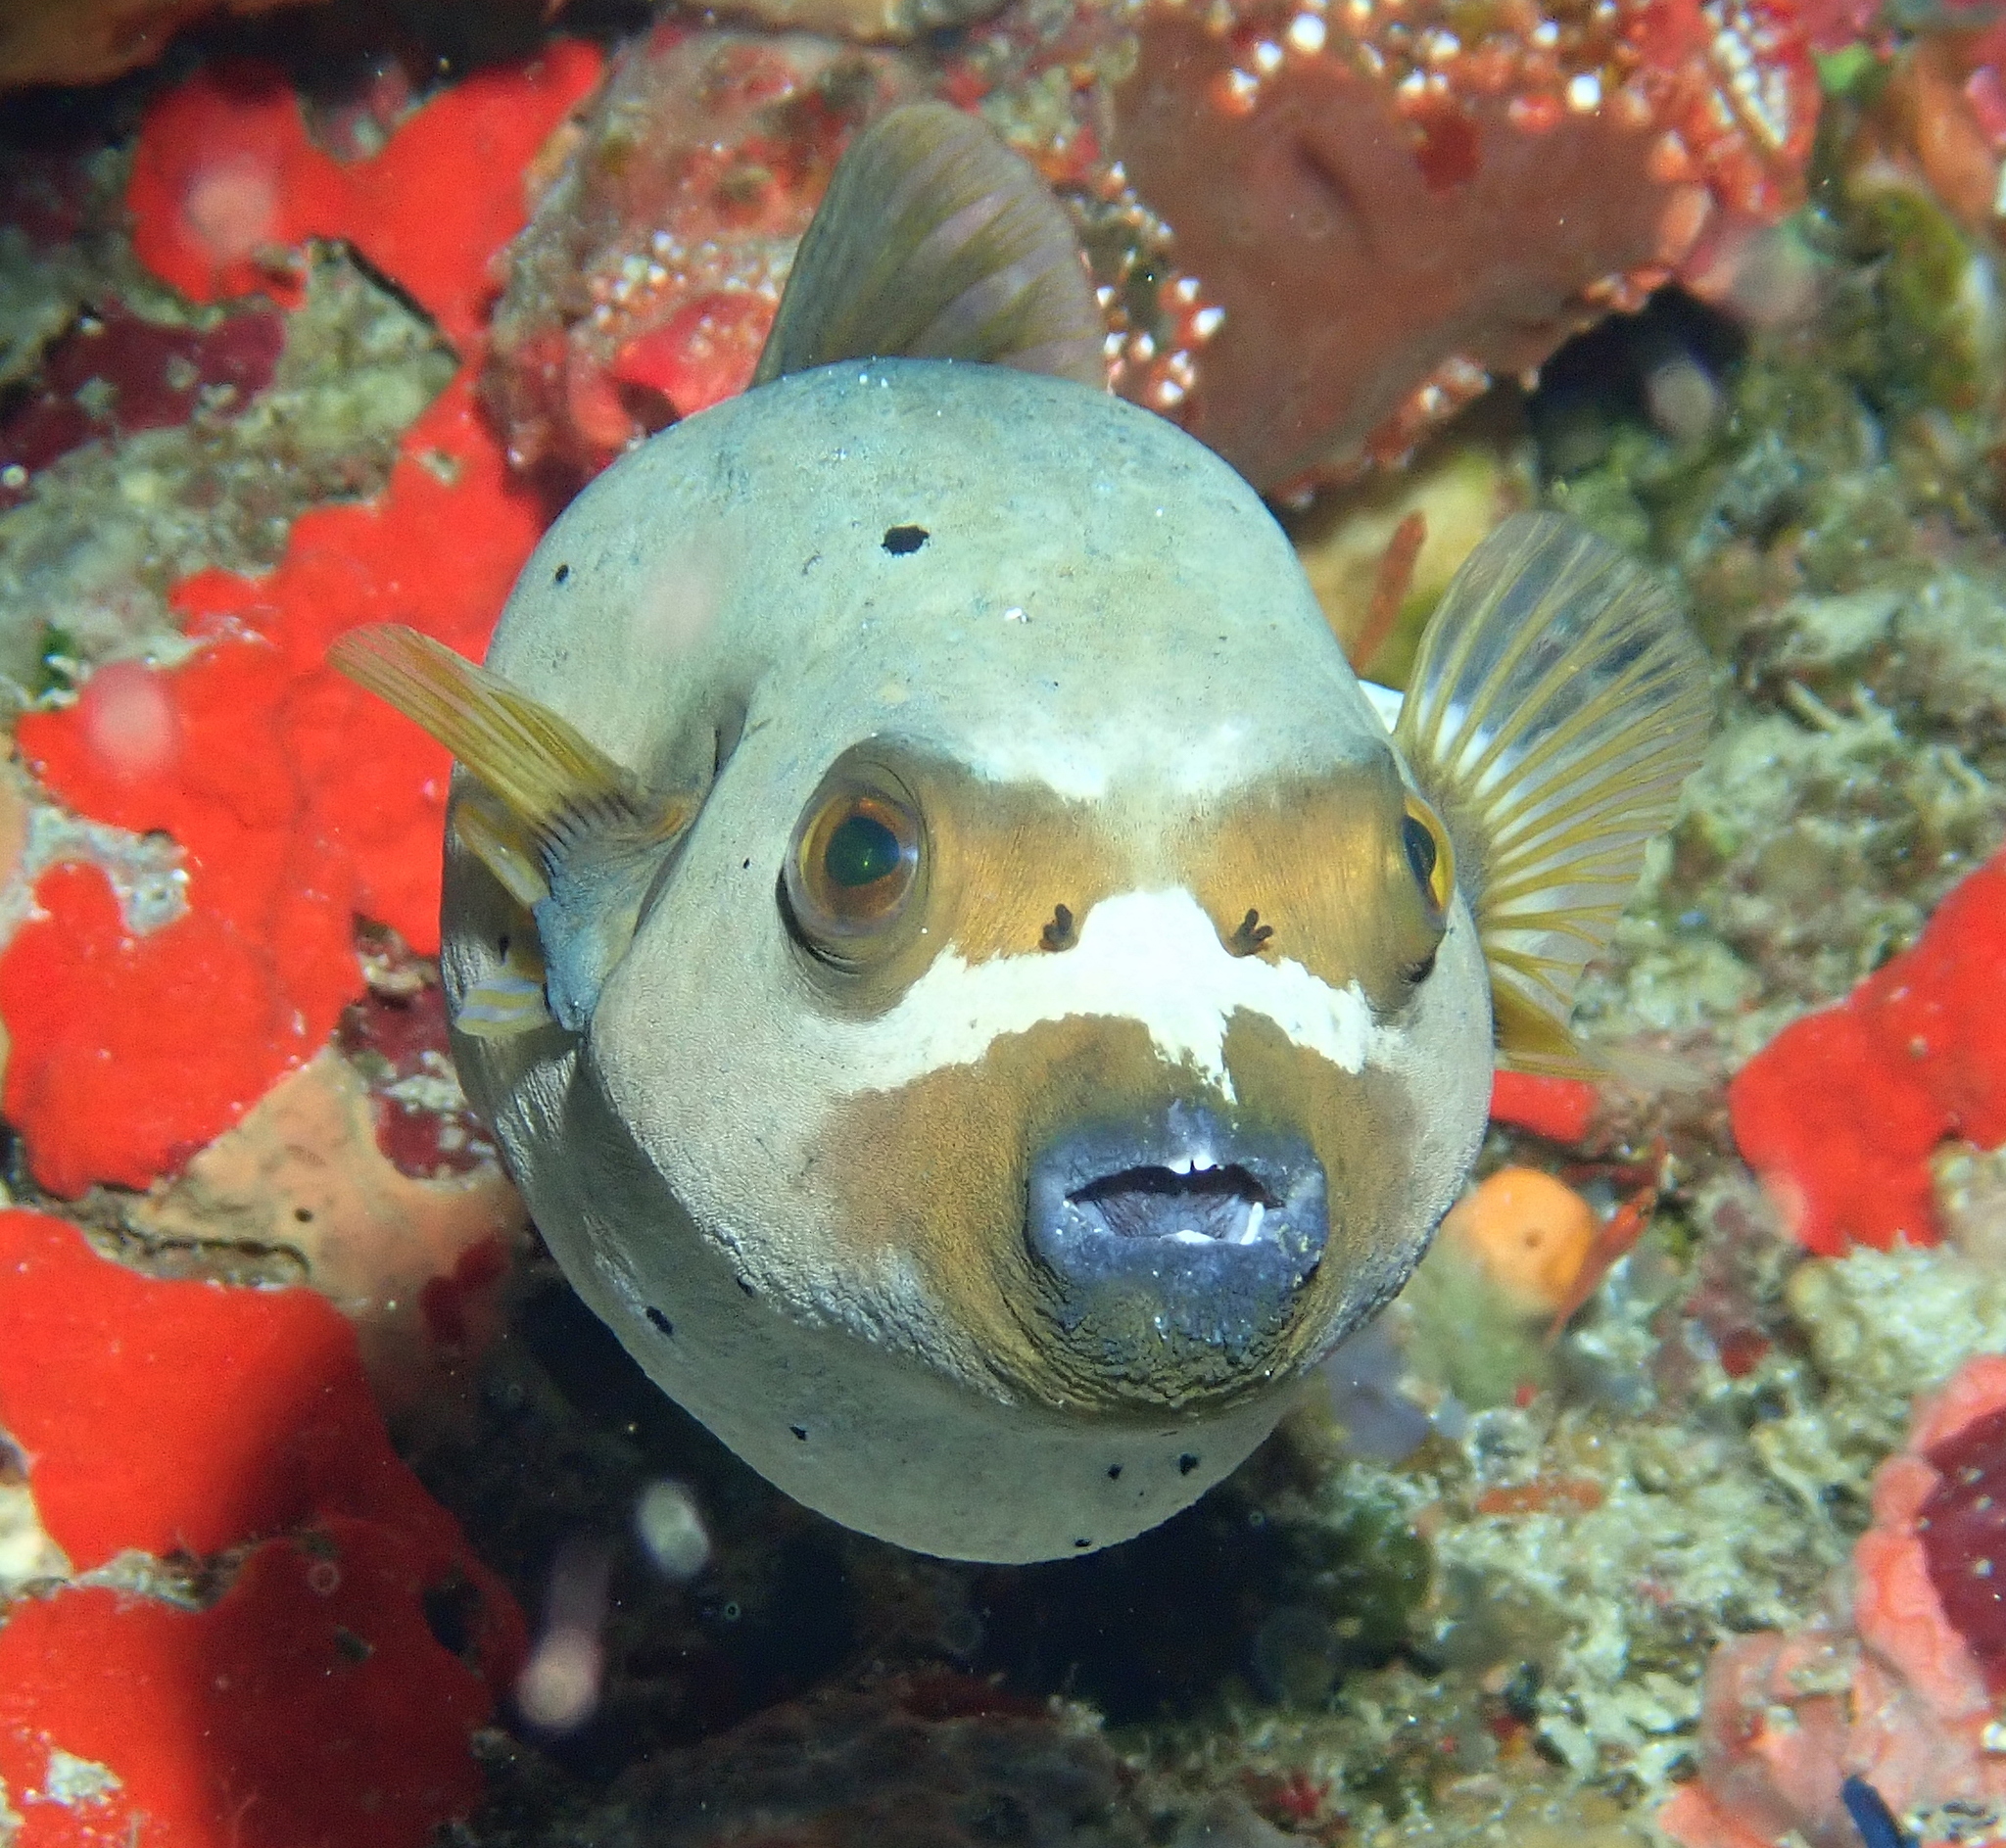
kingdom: Animalia
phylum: Chordata
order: Tetraodontiformes
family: Tetraodontidae
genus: Arothron
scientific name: Arothron nigropunctatus
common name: Black spotted blow fish
